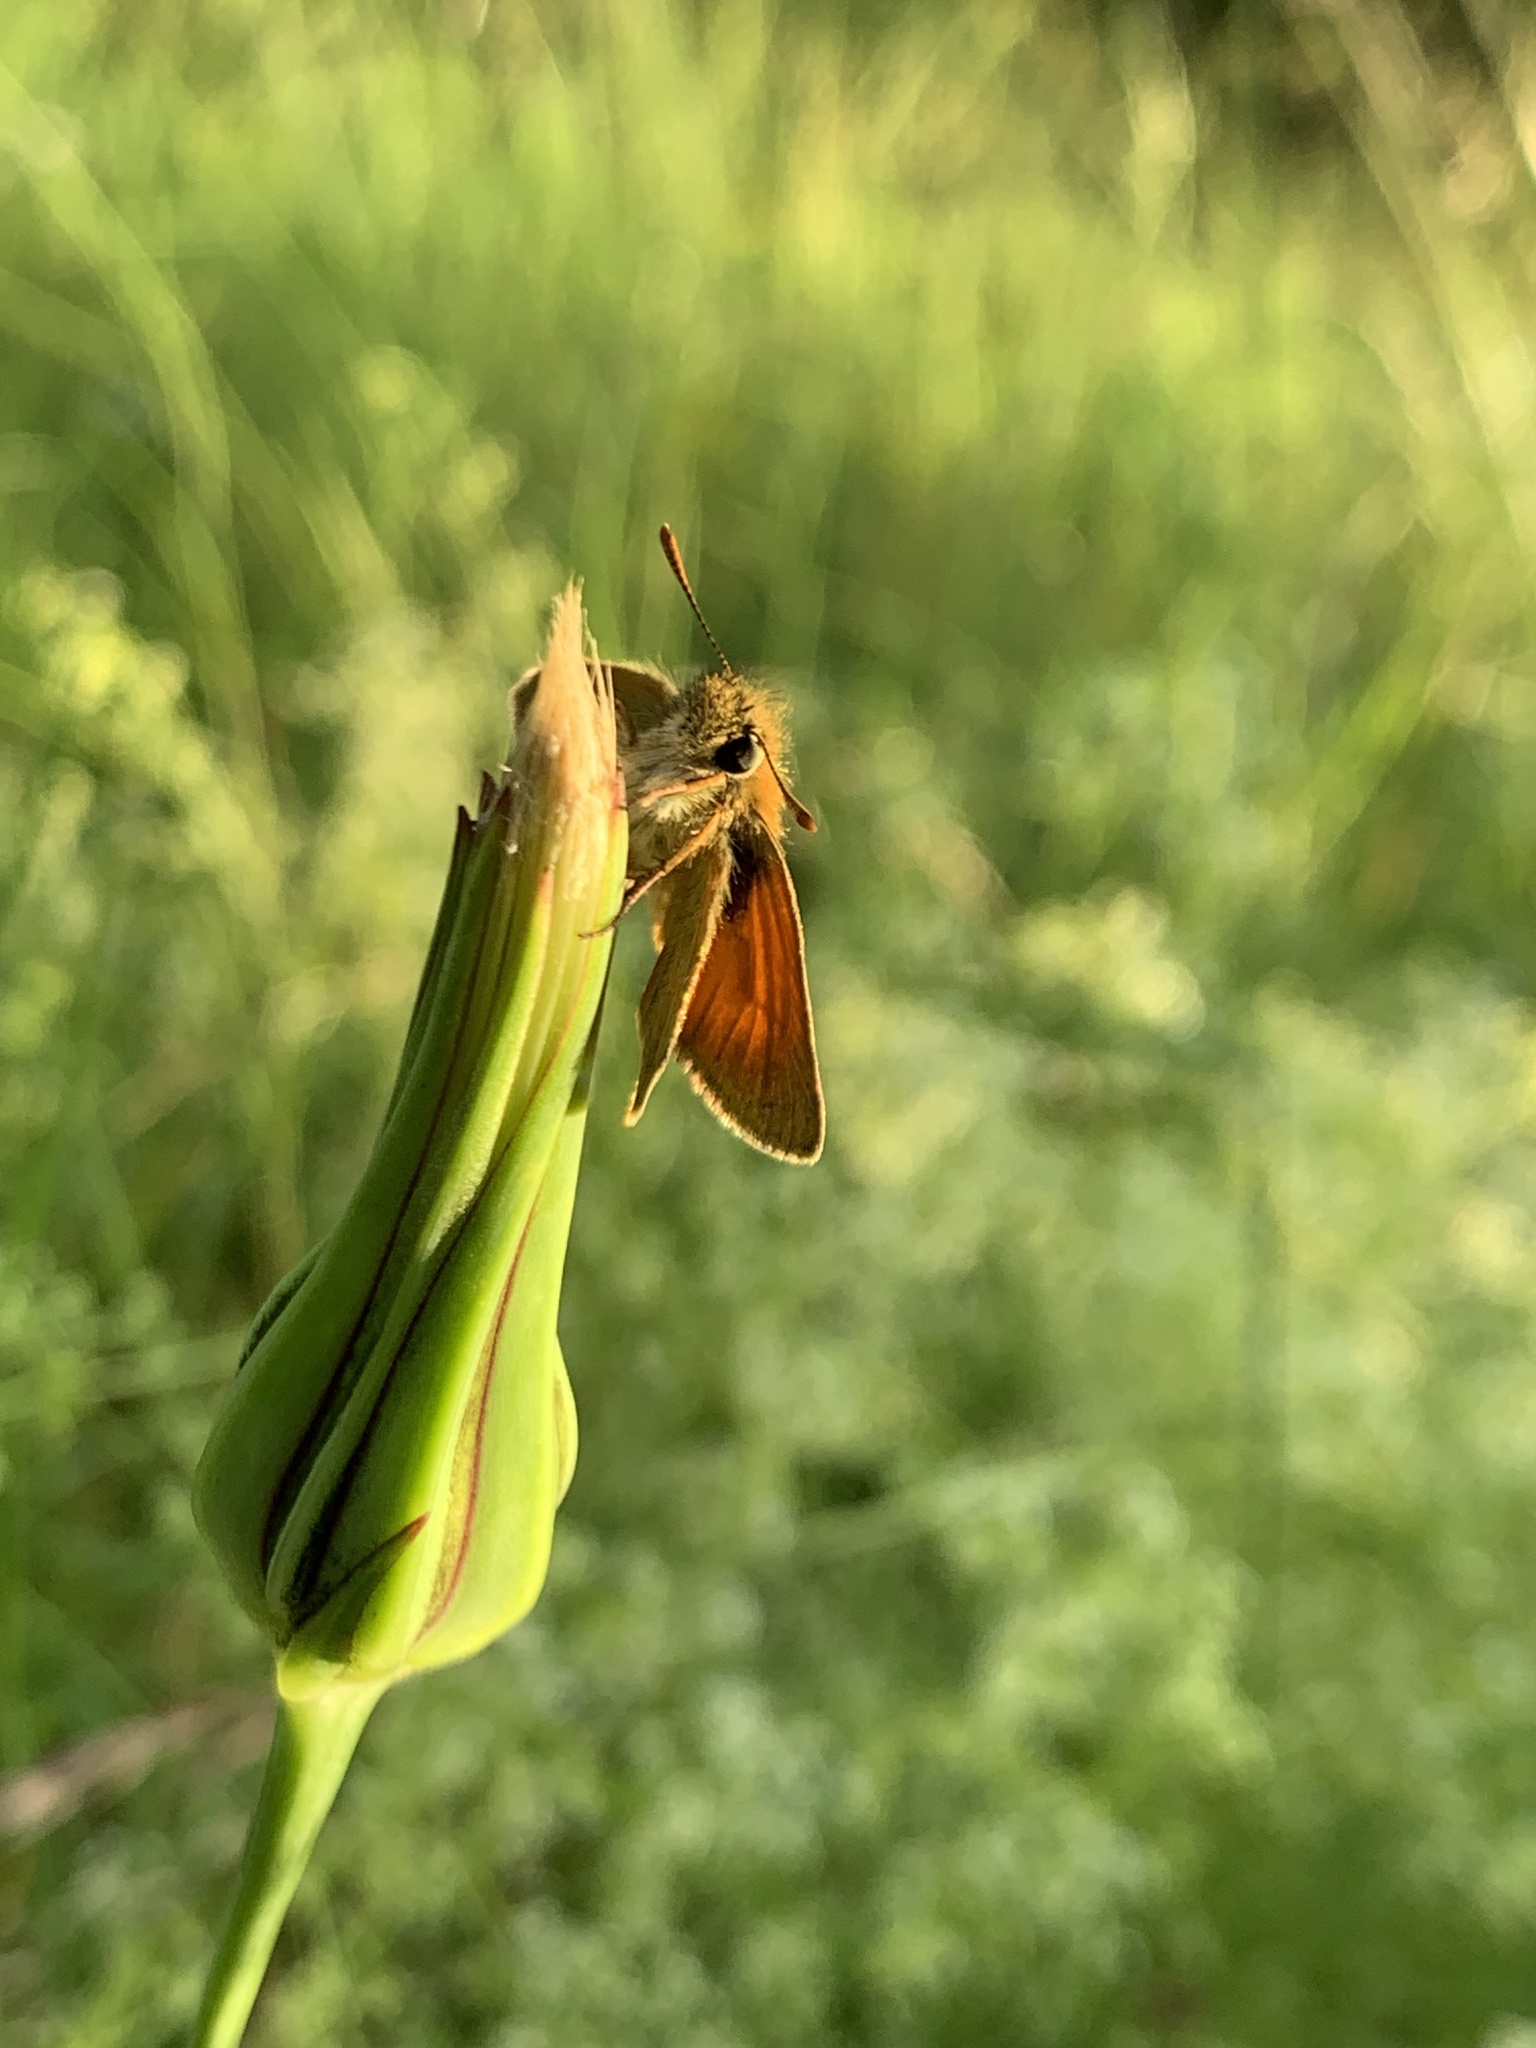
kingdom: Animalia
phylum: Arthropoda
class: Insecta
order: Lepidoptera
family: Hesperiidae
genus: Thymelicus
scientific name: Thymelicus sylvestris
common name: Small skipper
